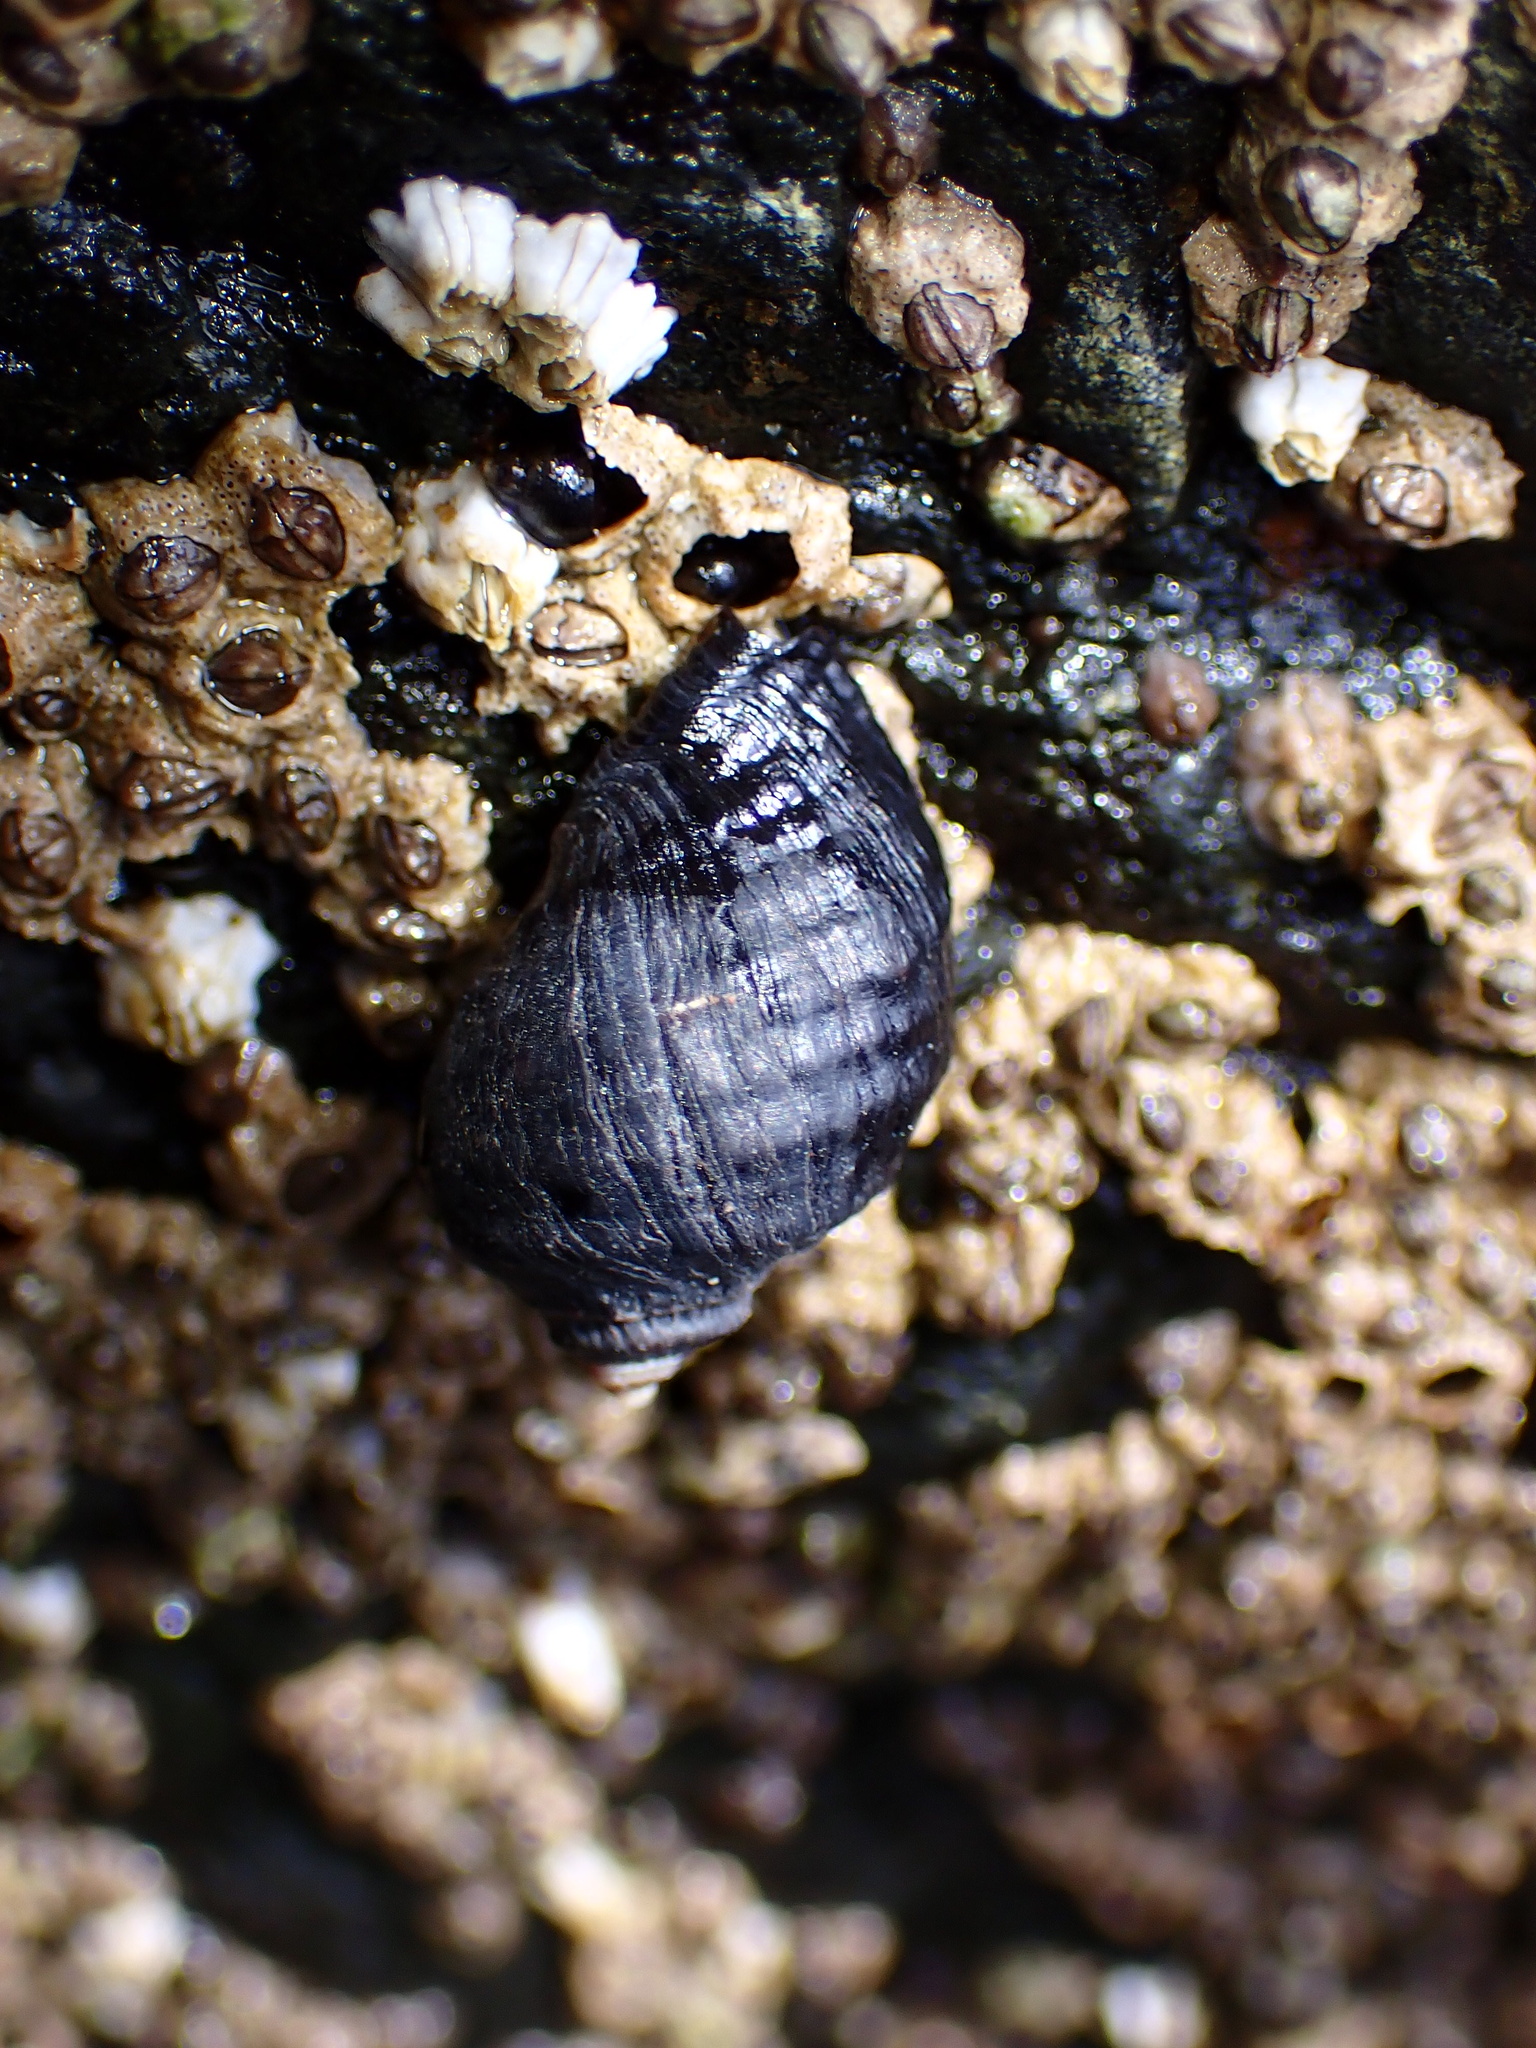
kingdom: Animalia
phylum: Mollusca
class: Gastropoda
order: Neogastropoda
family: Muricidae
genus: Nucella
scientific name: Nucella ostrina
